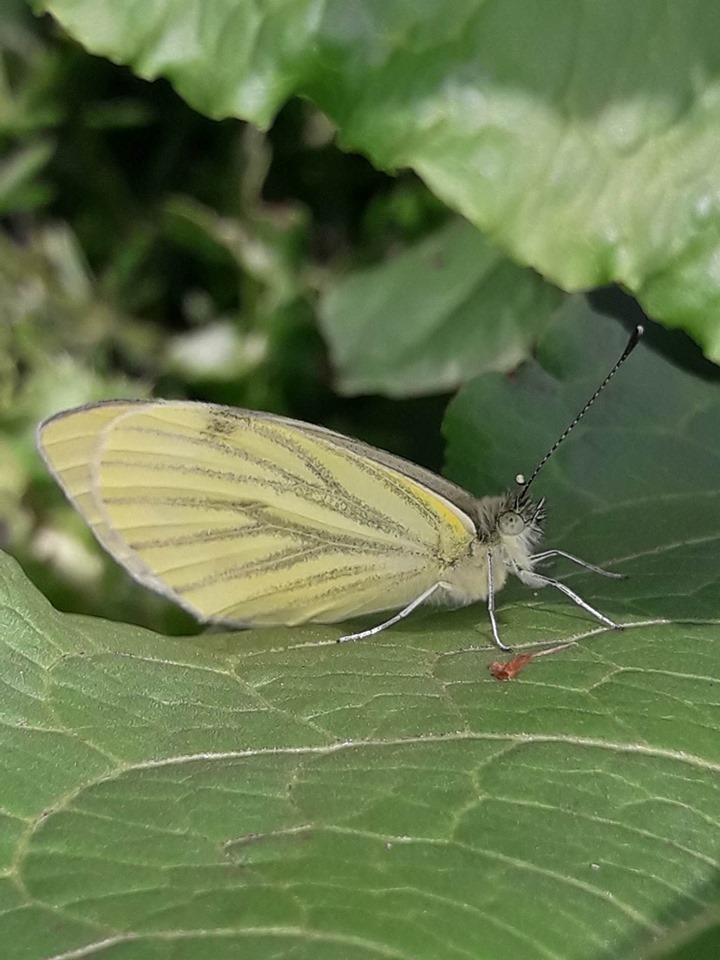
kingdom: Animalia
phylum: Arthropoda
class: Insecta
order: Lepidoptera
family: Pieridae
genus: Pieris
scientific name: Pieris napi
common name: Green-veined white
